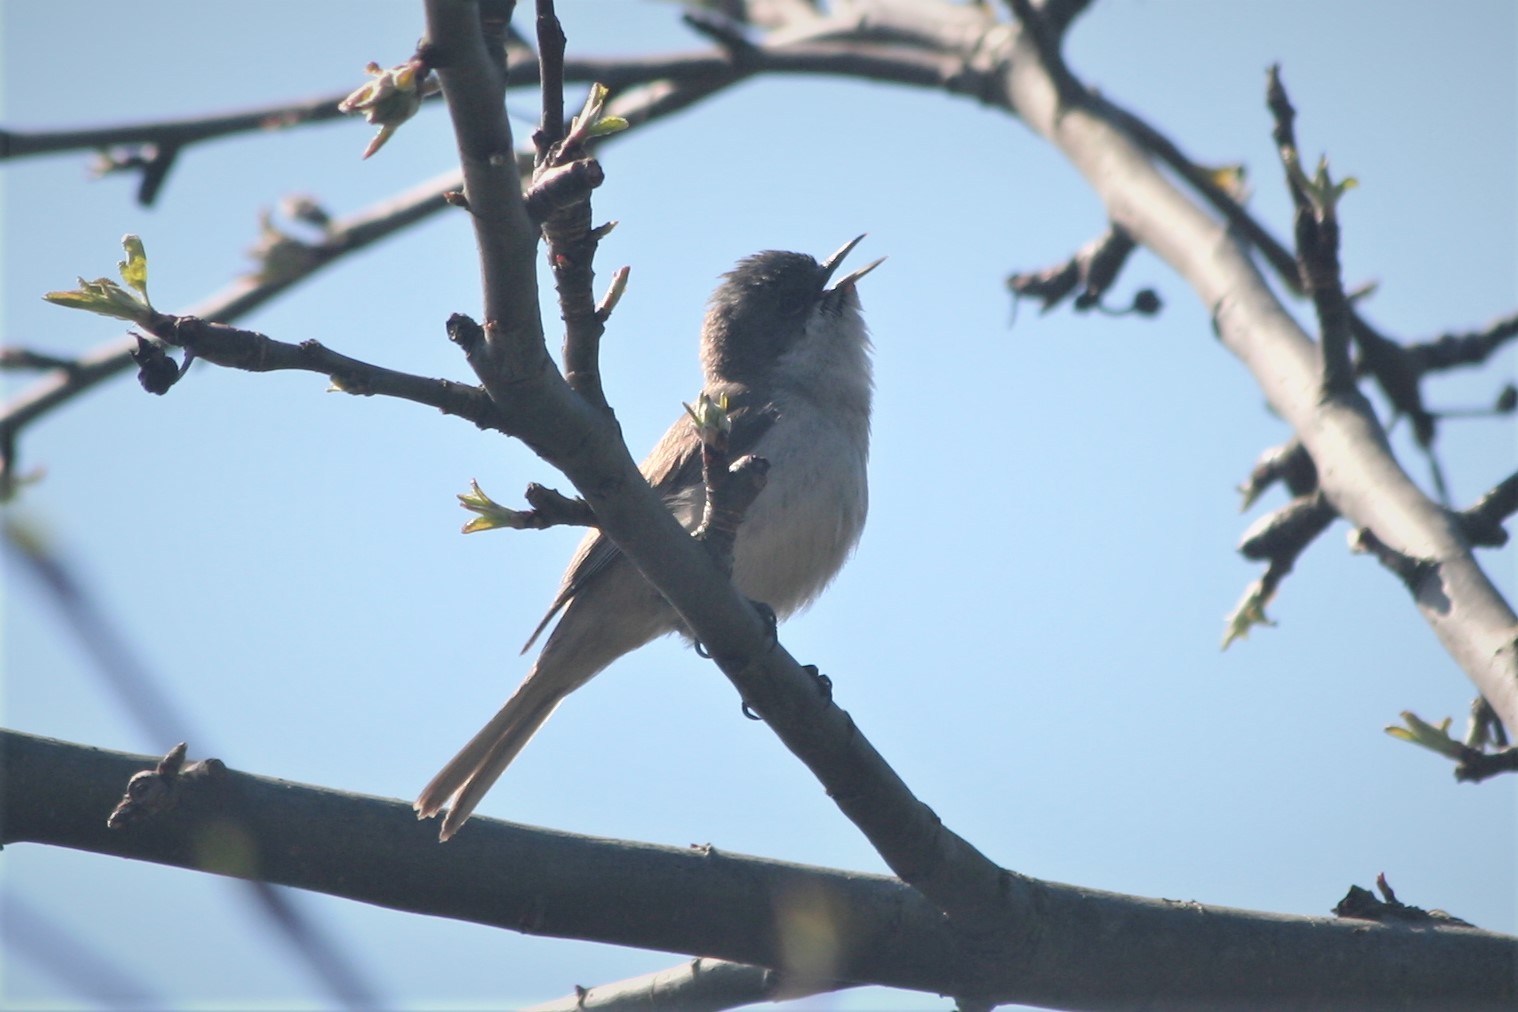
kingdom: Animalia
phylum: Chordata
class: Aves
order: Passeriformes
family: Sylviidae
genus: Sylvia
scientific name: Sylvia curruca
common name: Lesser whitethroat
